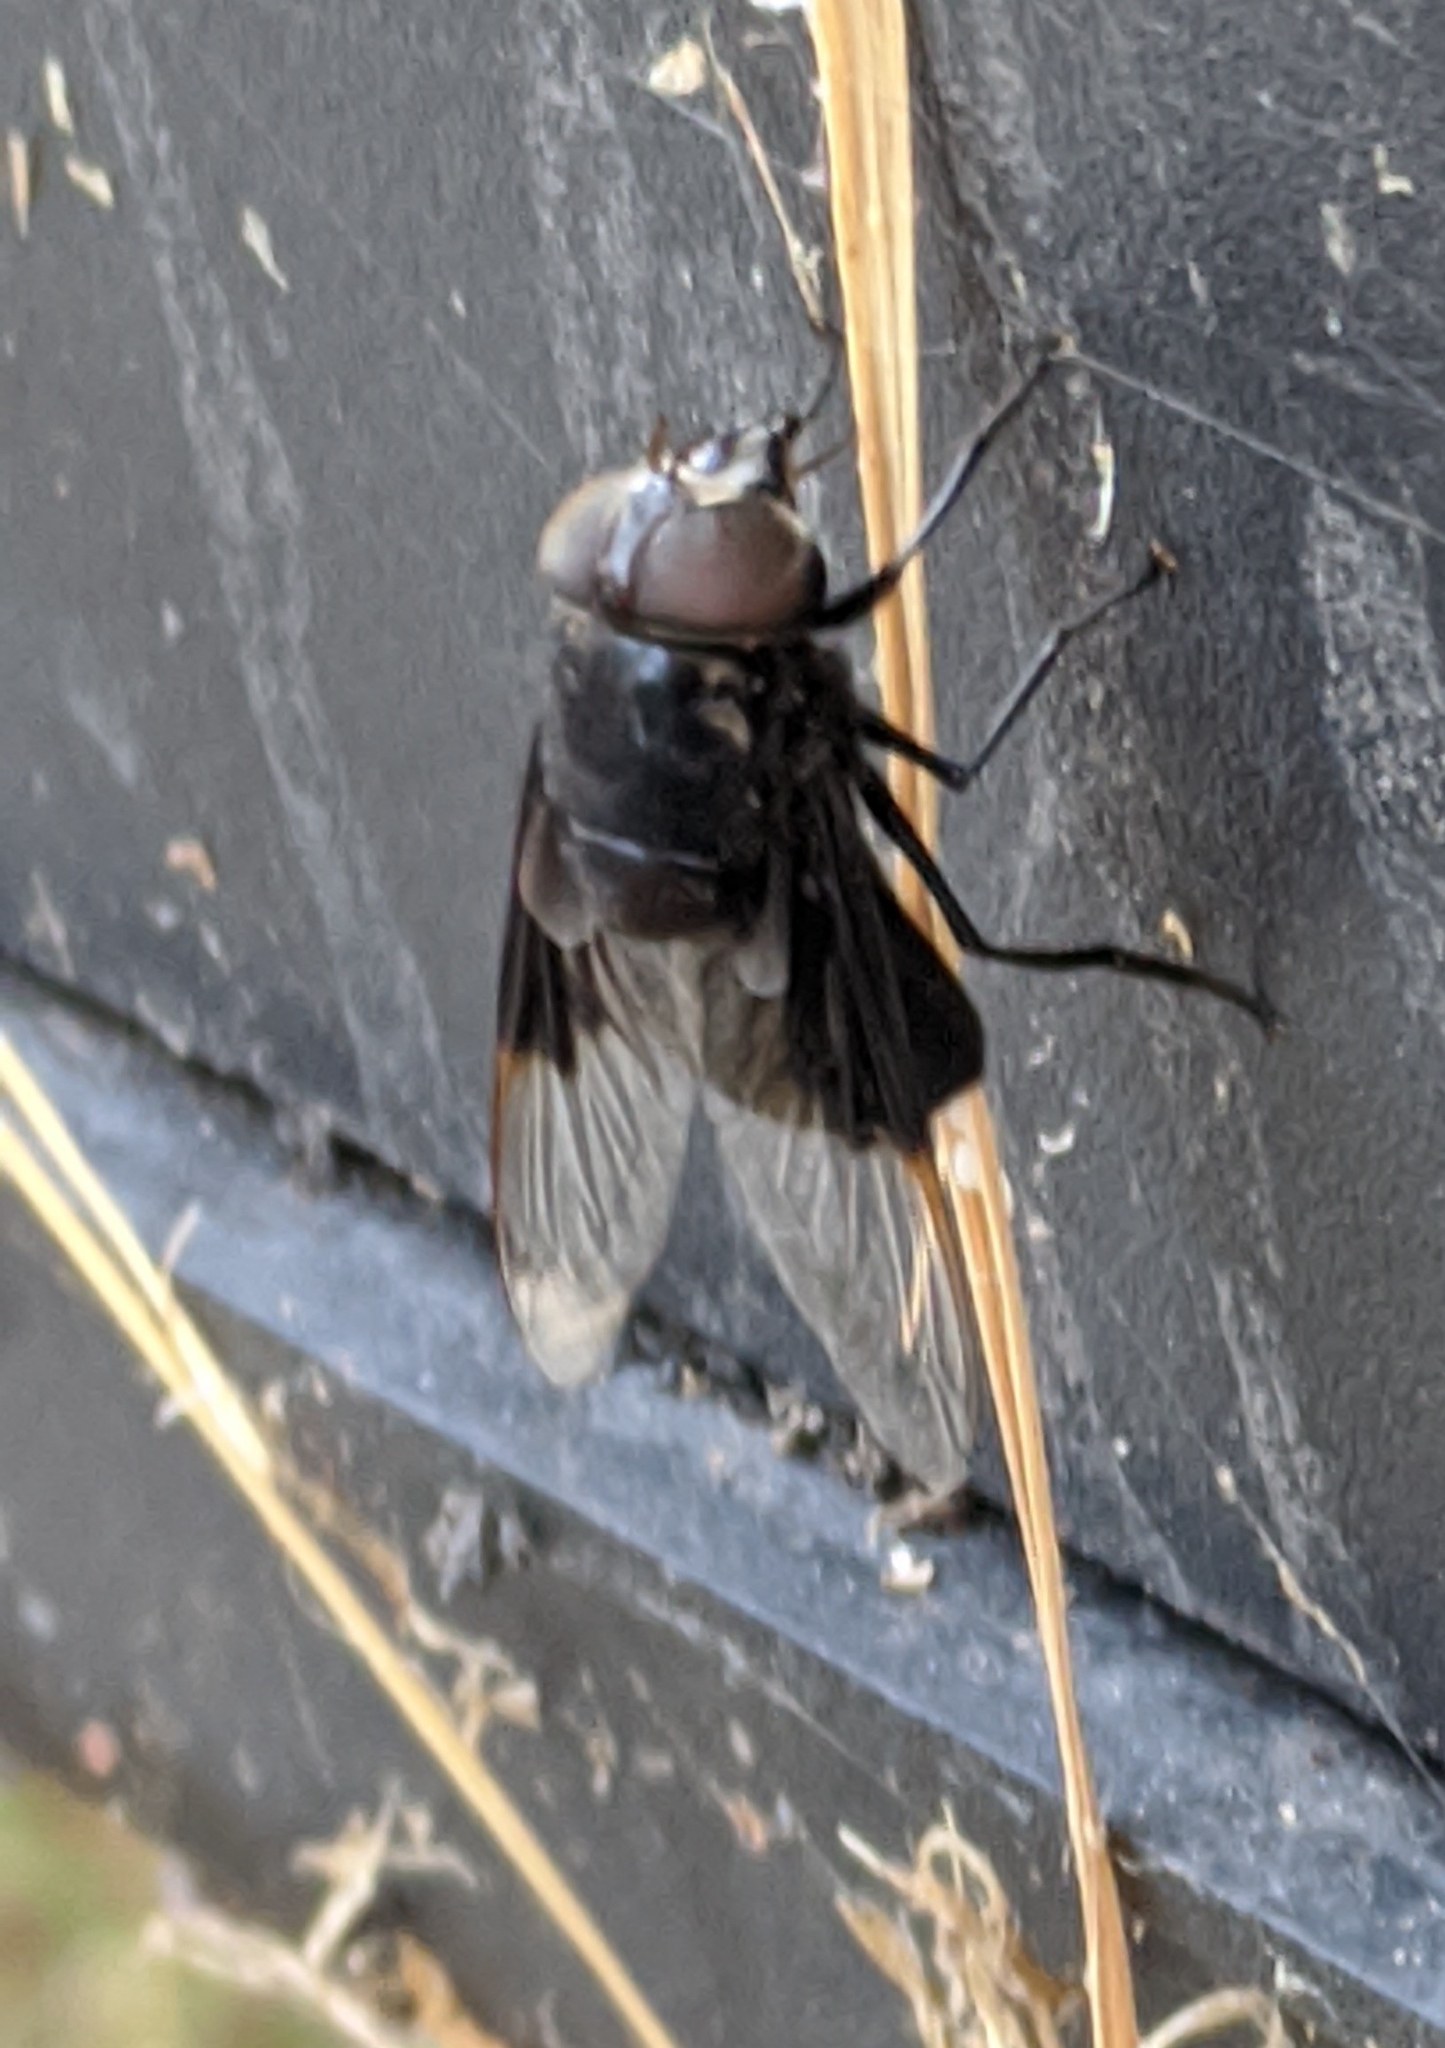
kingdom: Animalia
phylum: Arthropoda
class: Insecta
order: Diptera
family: Syrphidae
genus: Copestylum
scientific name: Copestylum
